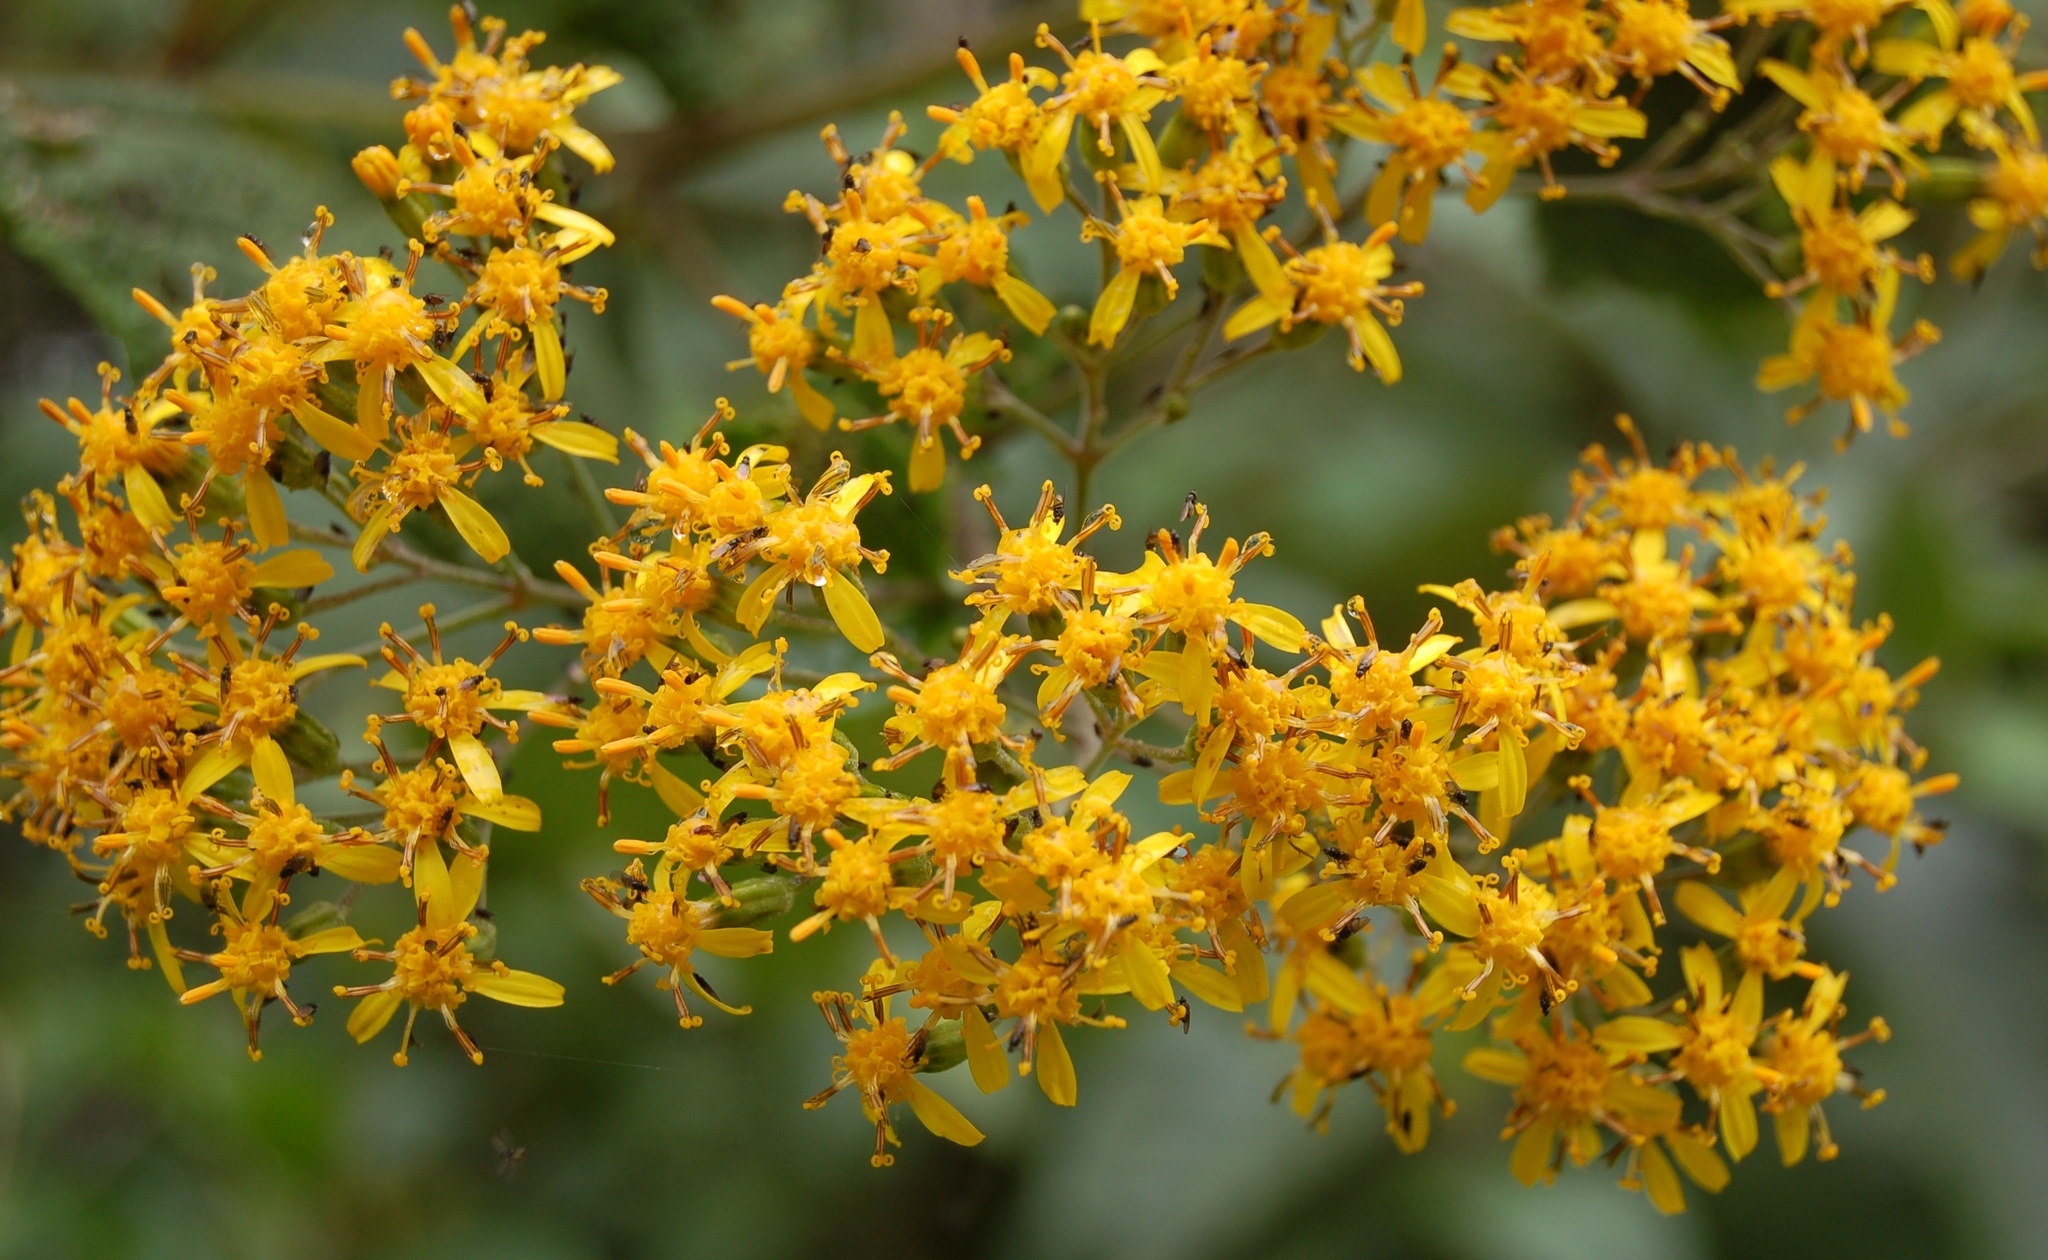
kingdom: Plantae
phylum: Tracheophyta
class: Magnoliopsida
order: Asterales
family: Asteraceae
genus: Roldana
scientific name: Roldana hartwegii
